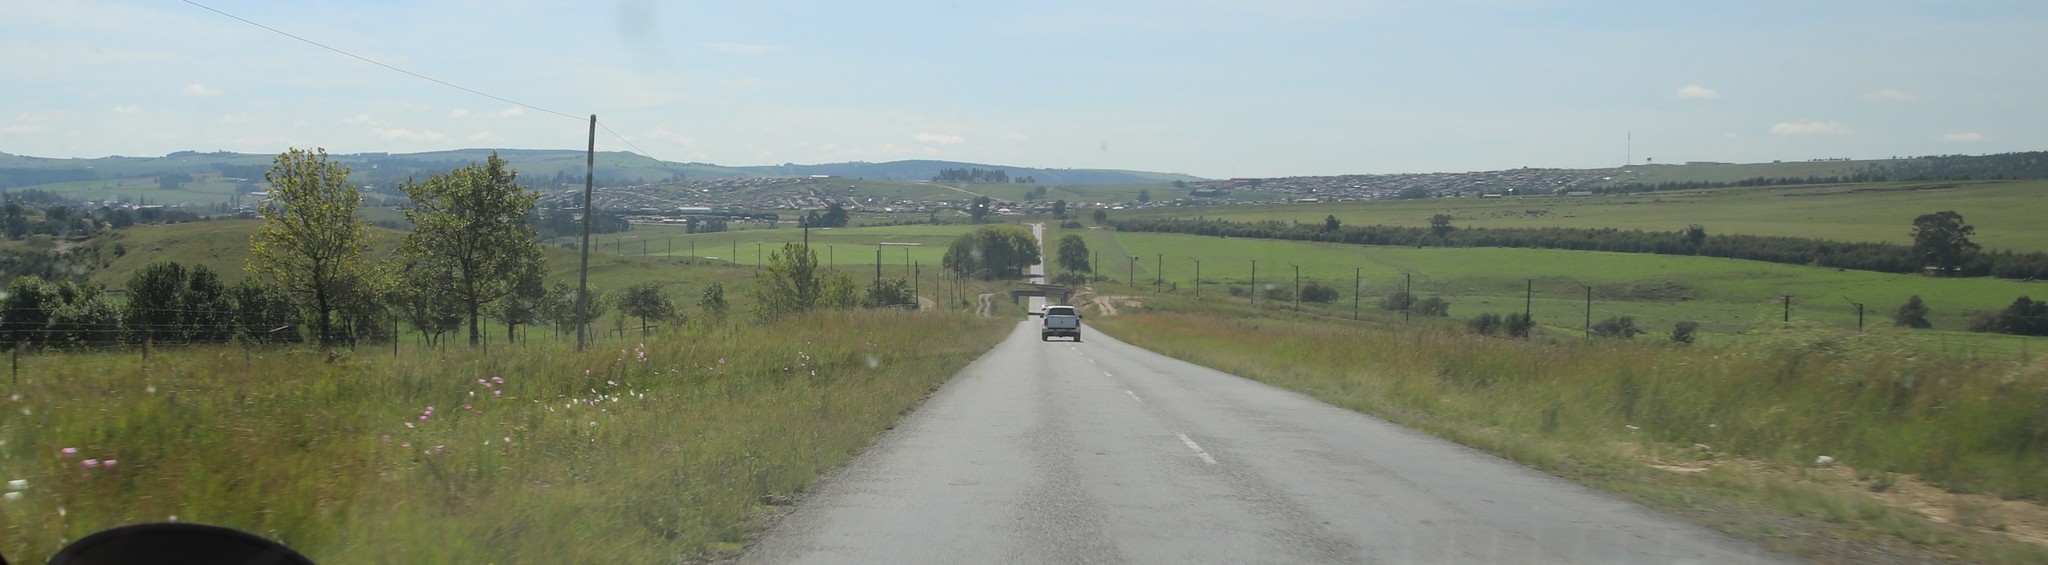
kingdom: Plantae
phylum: Tracheophyta
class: Magnoliopsida
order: Asterales
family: Asteraceae
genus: Cosmos
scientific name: Cosmos bipinnatus
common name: Garden cosmos
